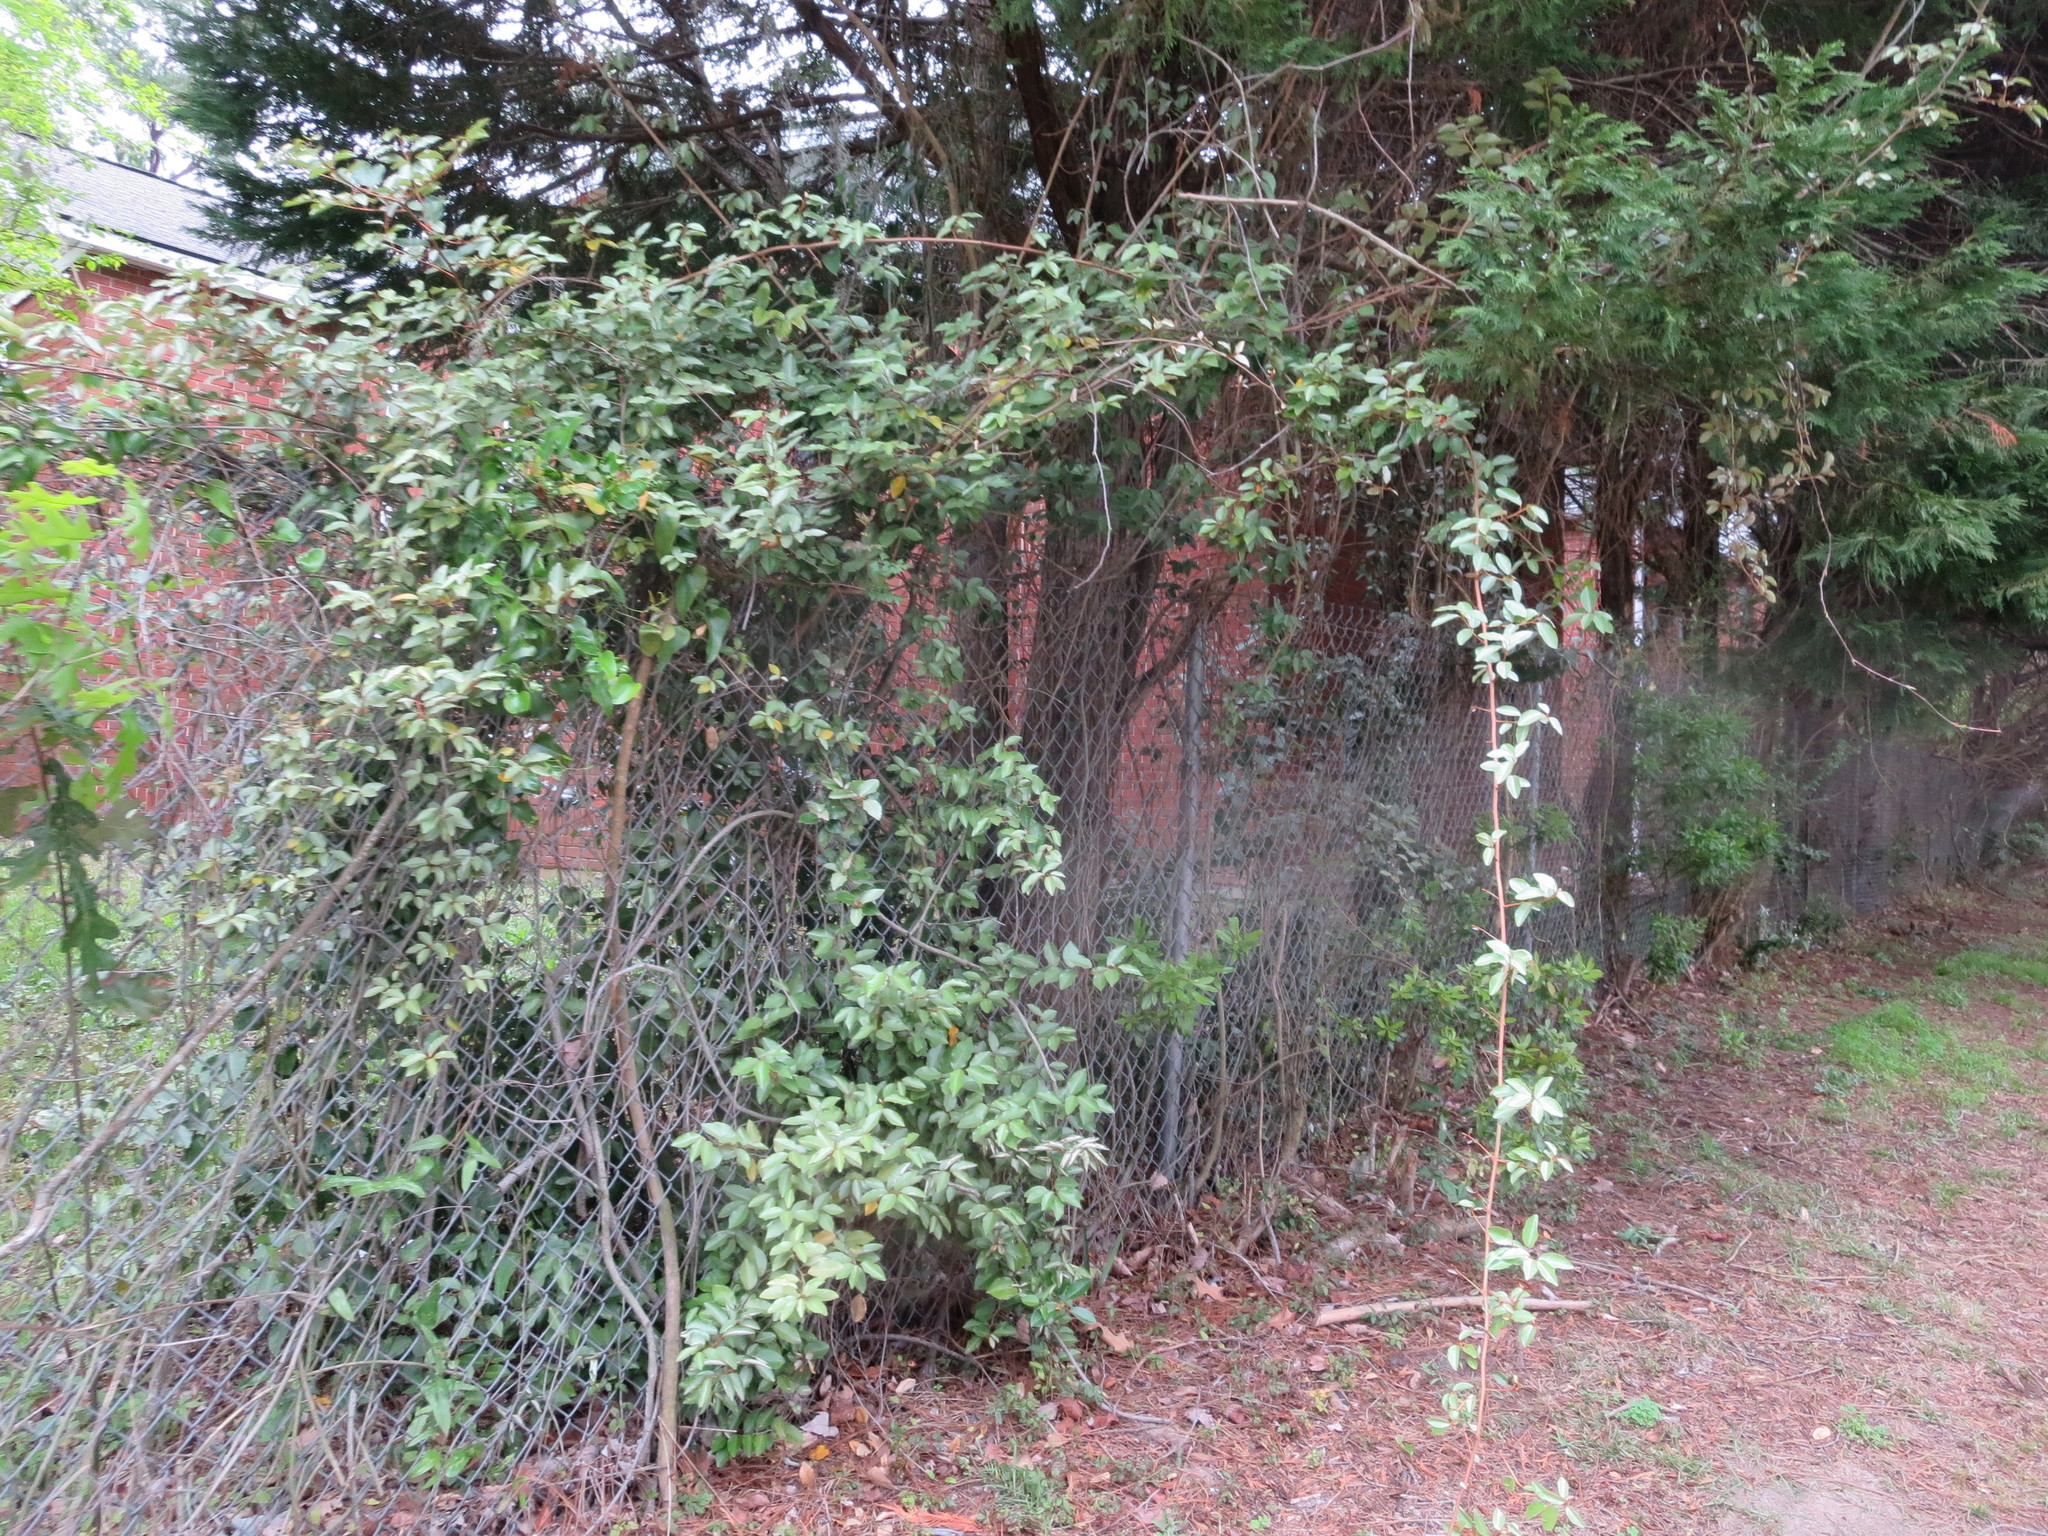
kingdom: Plantae
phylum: Tracheophyta
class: Magnoliopsida
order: Rosales
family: Elaeagnaceae
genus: Elaeagnus
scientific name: Elaeagnus pungens
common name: Spiny oleaster
